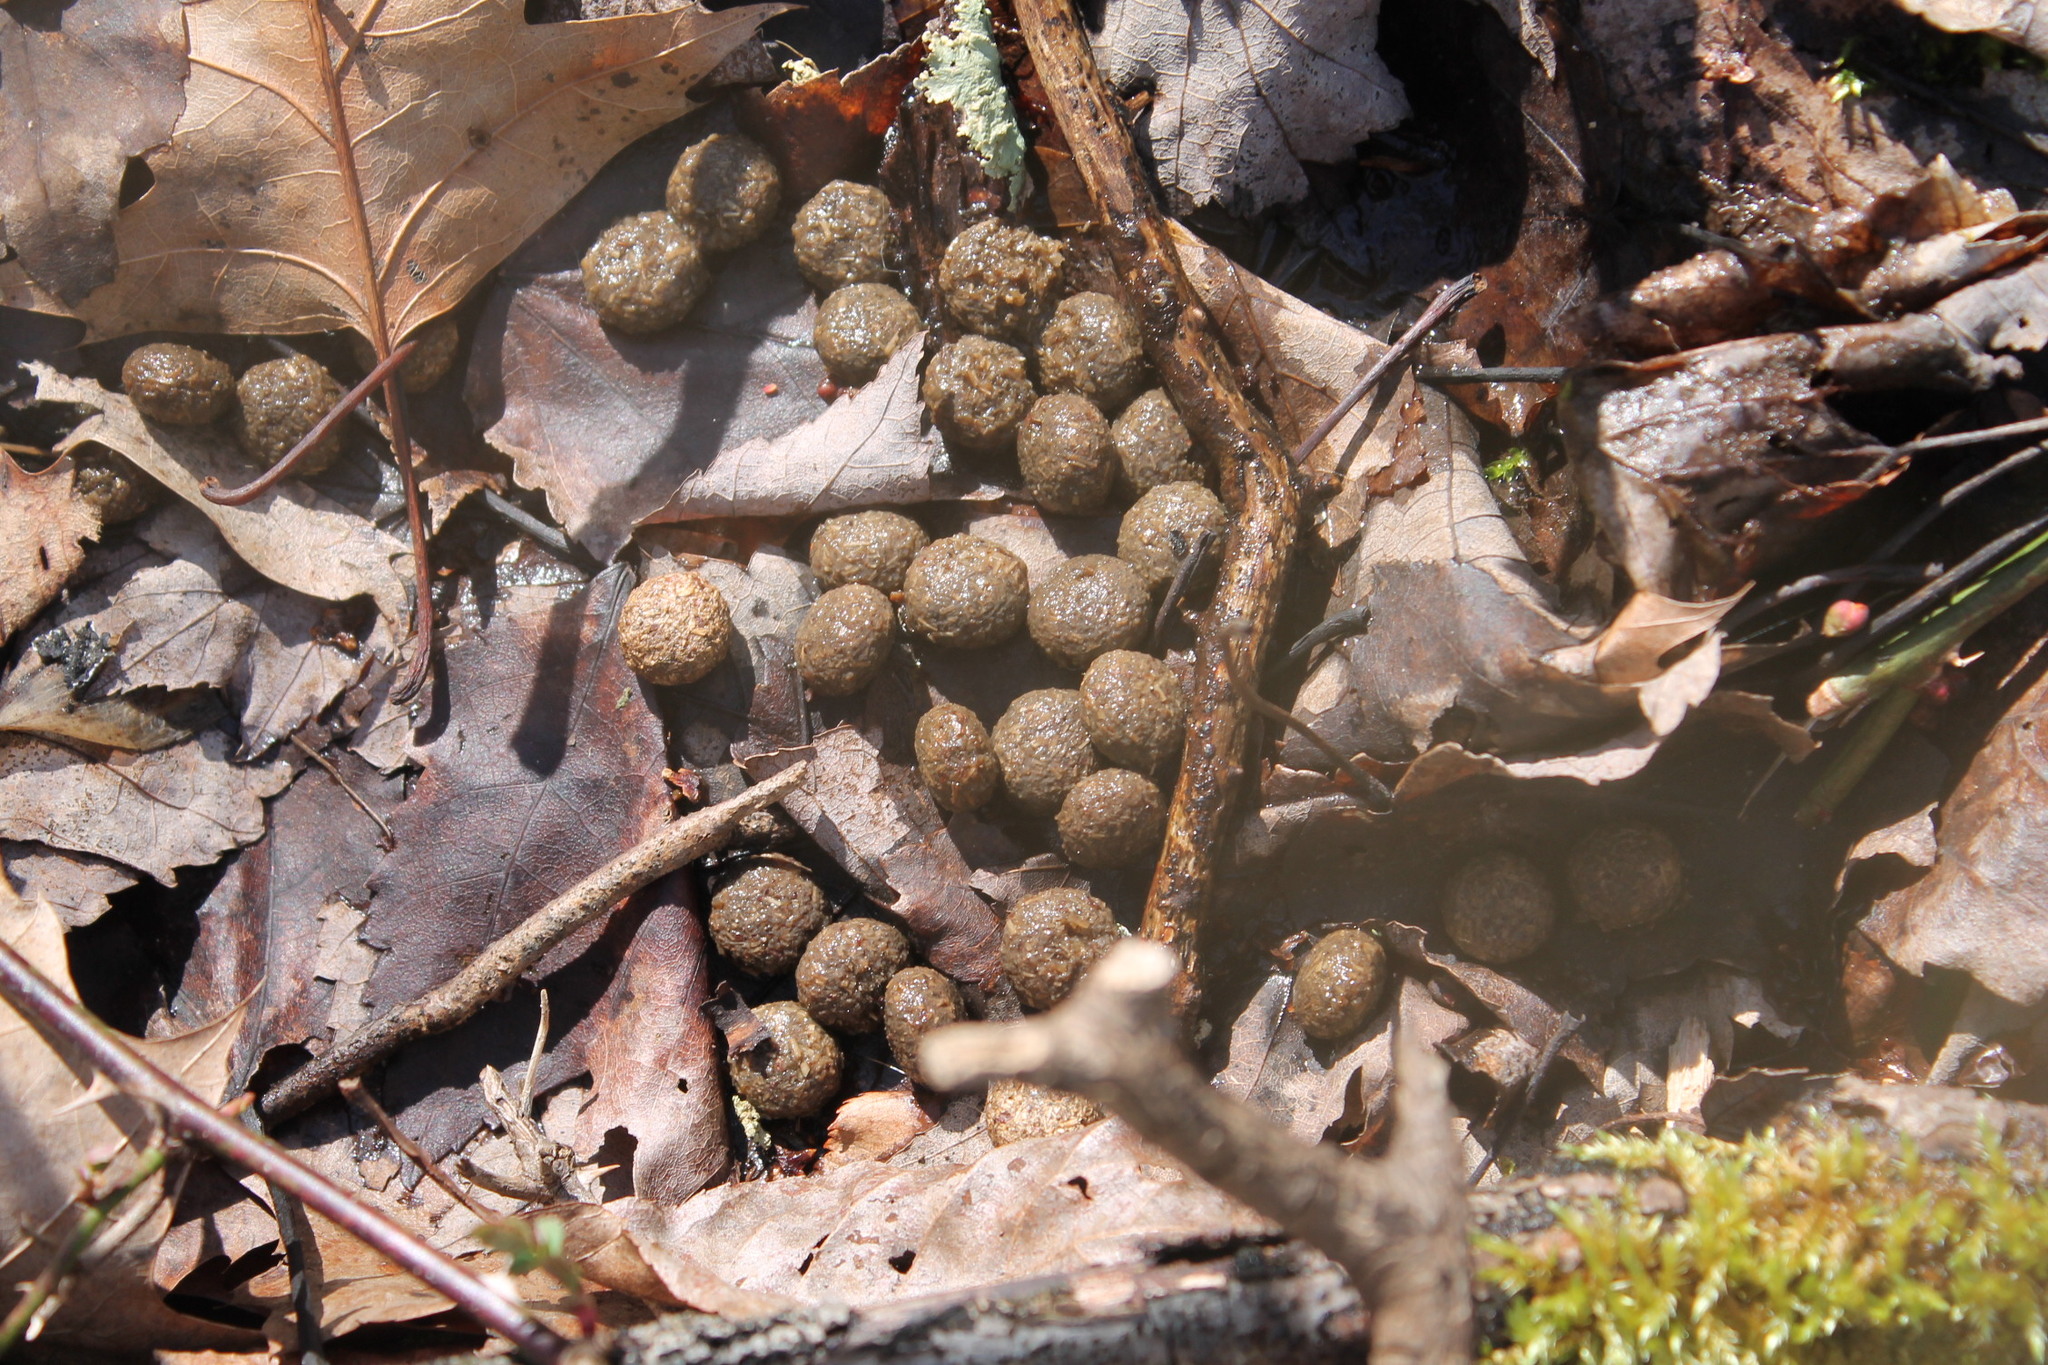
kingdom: Animalia
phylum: Chordata
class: Mammalia
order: Lagomorpha
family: Leporidae
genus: Sylvilagus
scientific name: Sylvilagus floridanus
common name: Eastern cottontail
